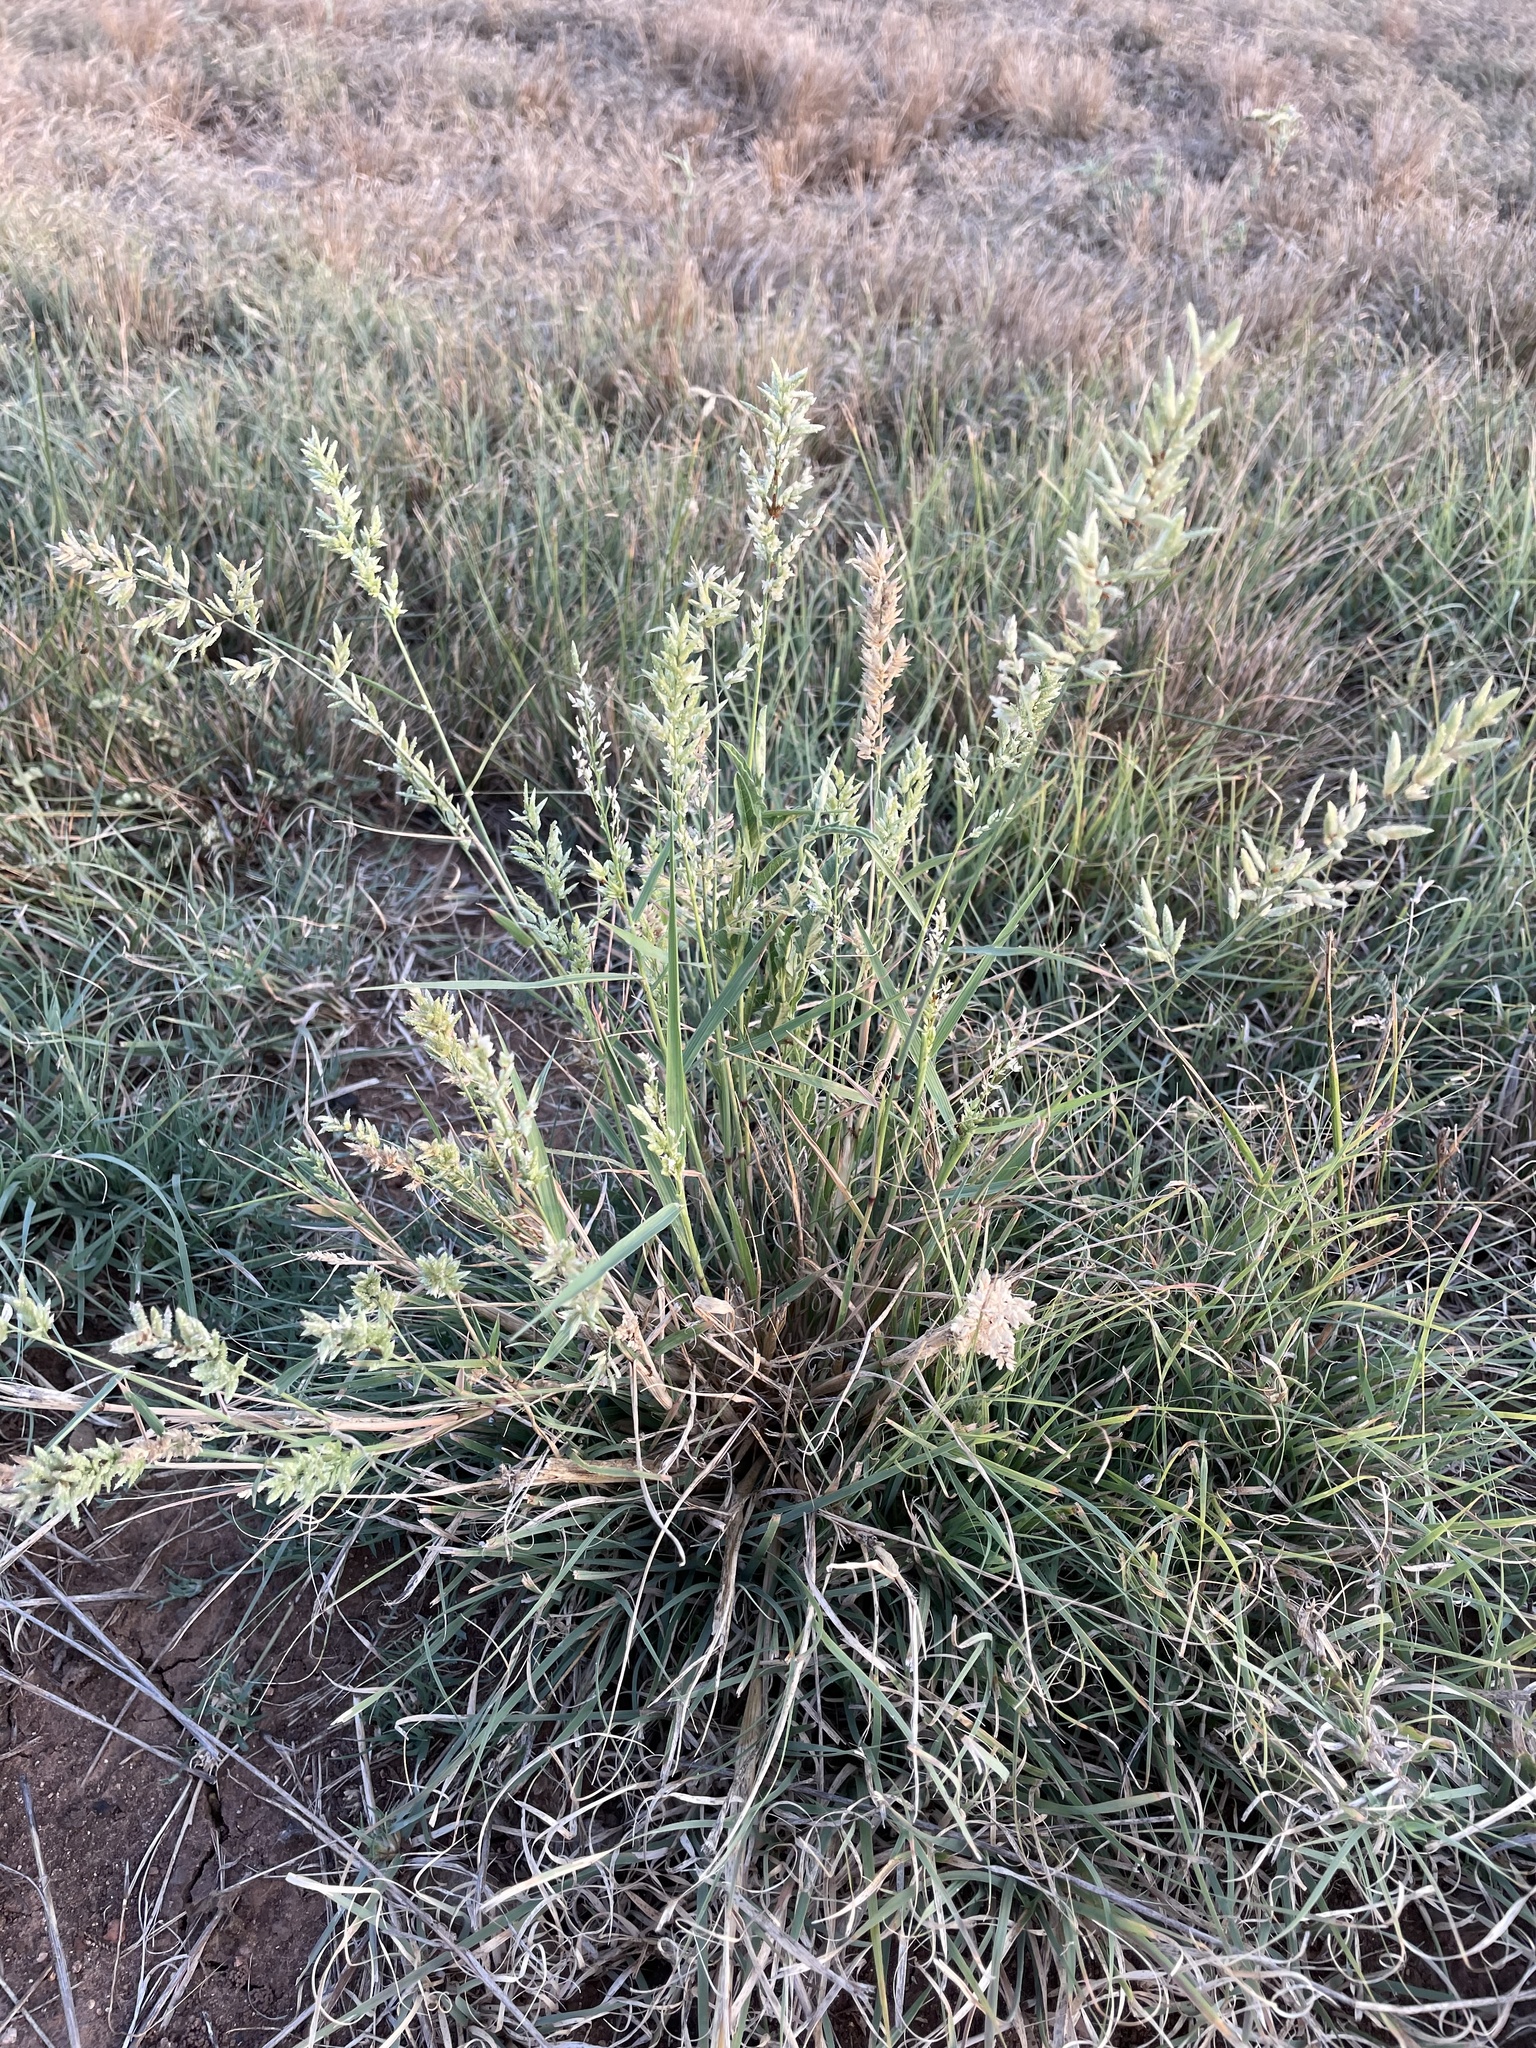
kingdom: Plantae
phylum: Tracheophyta
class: Liliopsida
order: Poales
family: Poaceae
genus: Eragrostis
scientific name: Eragrostis cilianensis
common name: Stinkgrass
